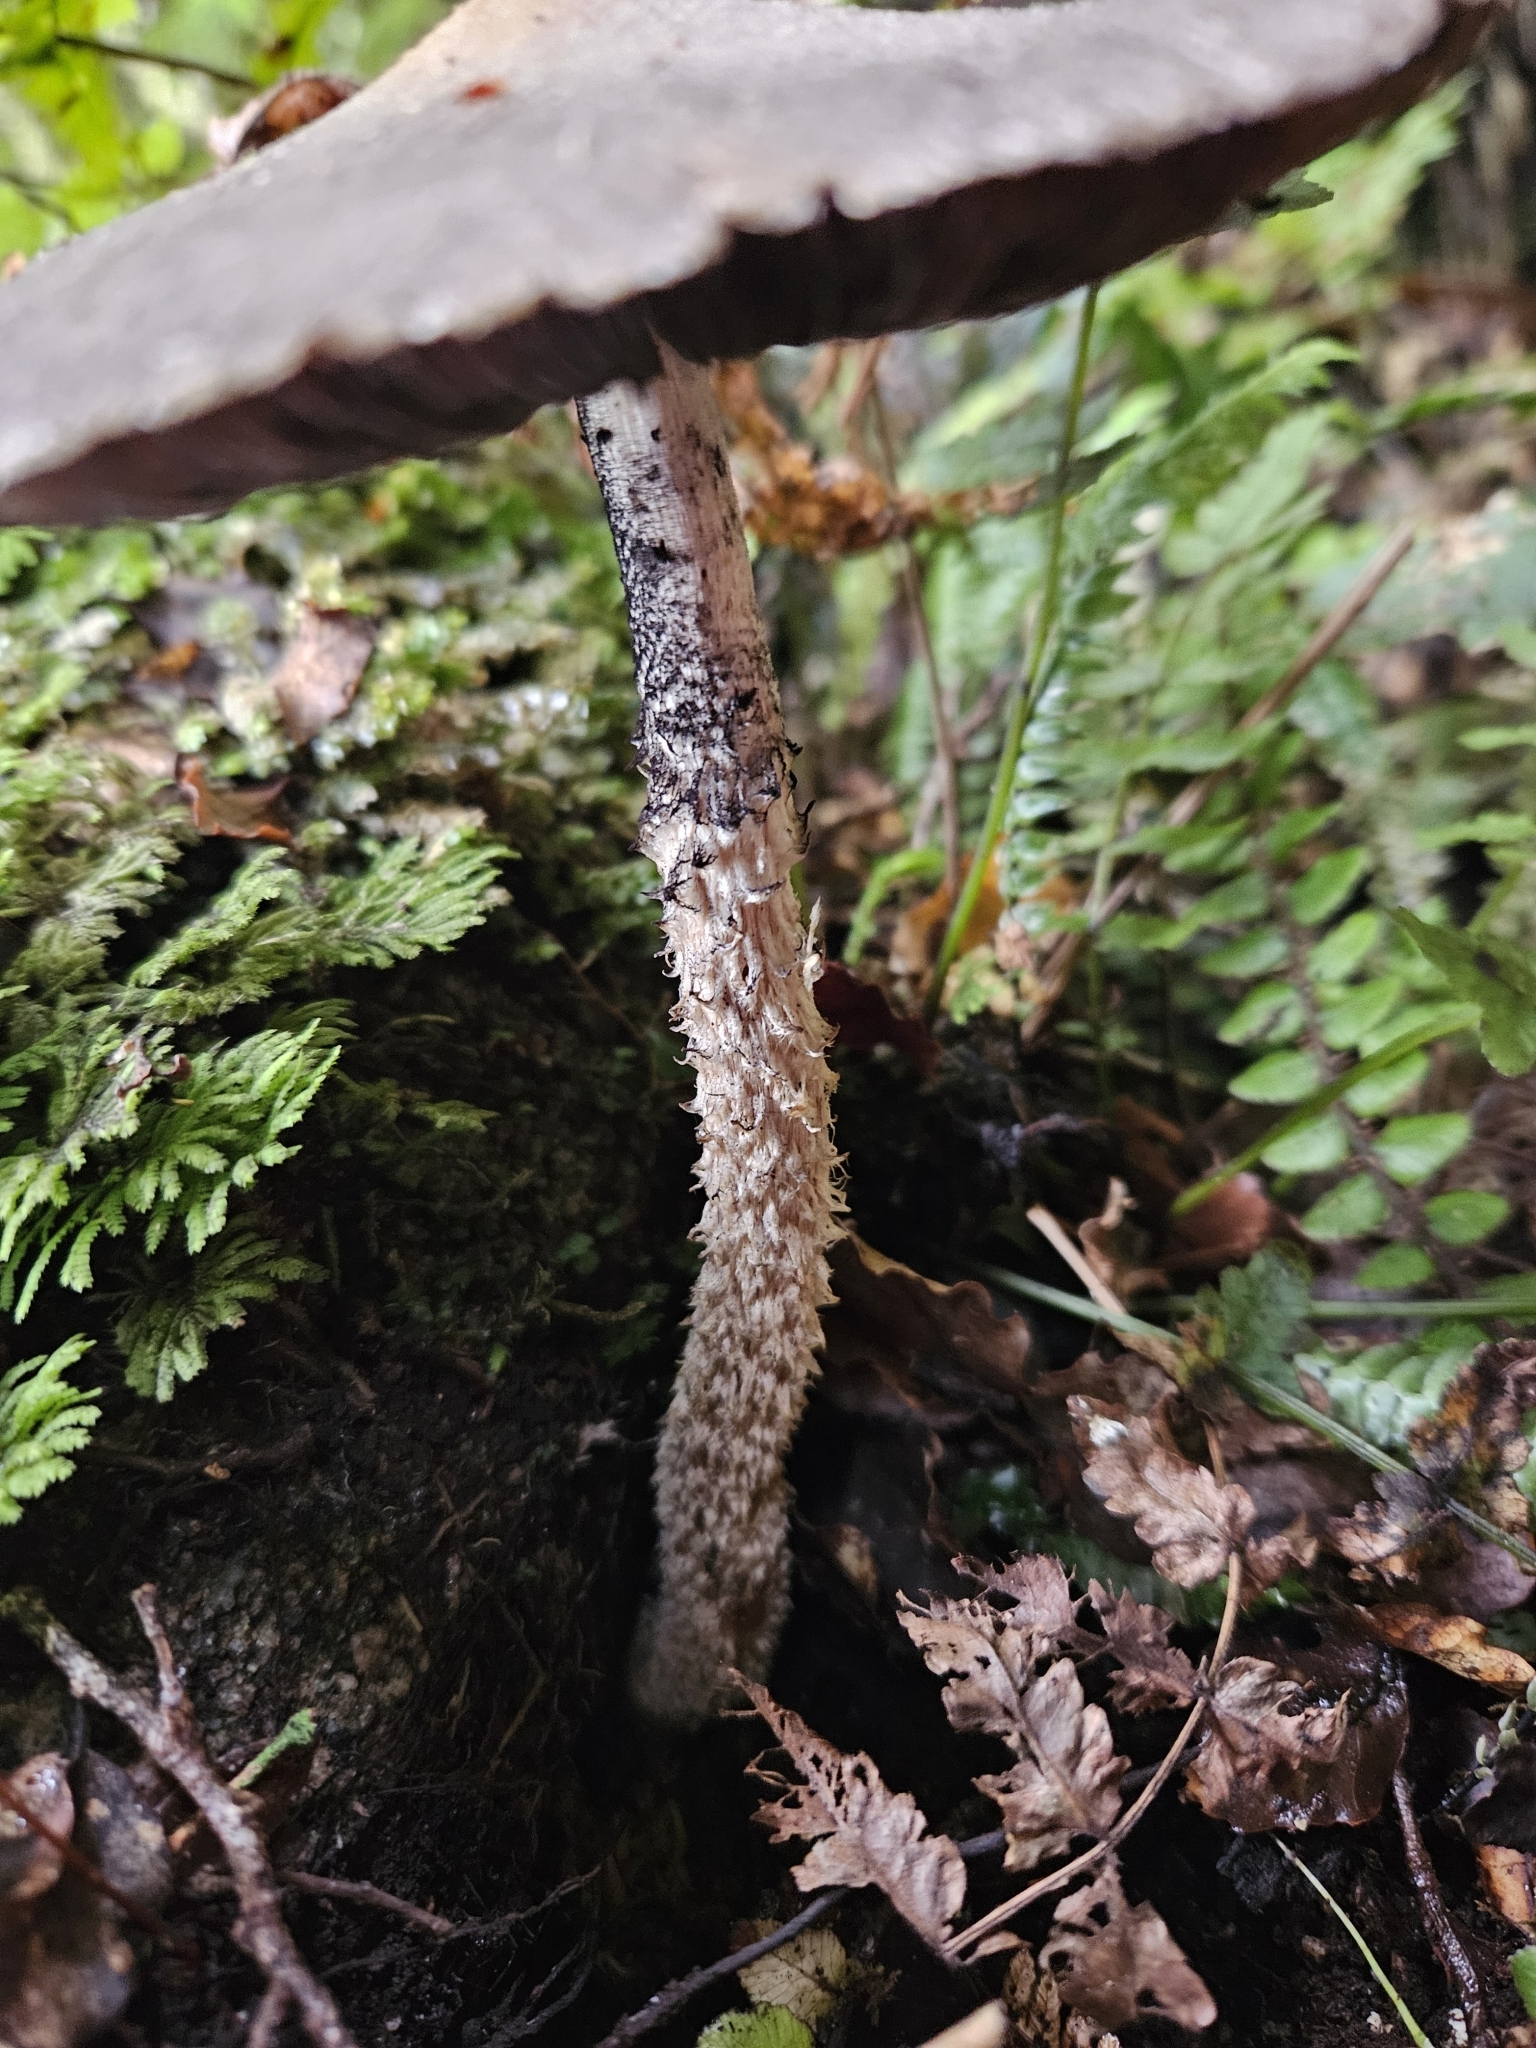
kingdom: Fungi
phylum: Basidiomycota
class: Agaricomycetes
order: Agaricales
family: Psathyrellaceae
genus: Psathyrella
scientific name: Psathyrella asperospora
